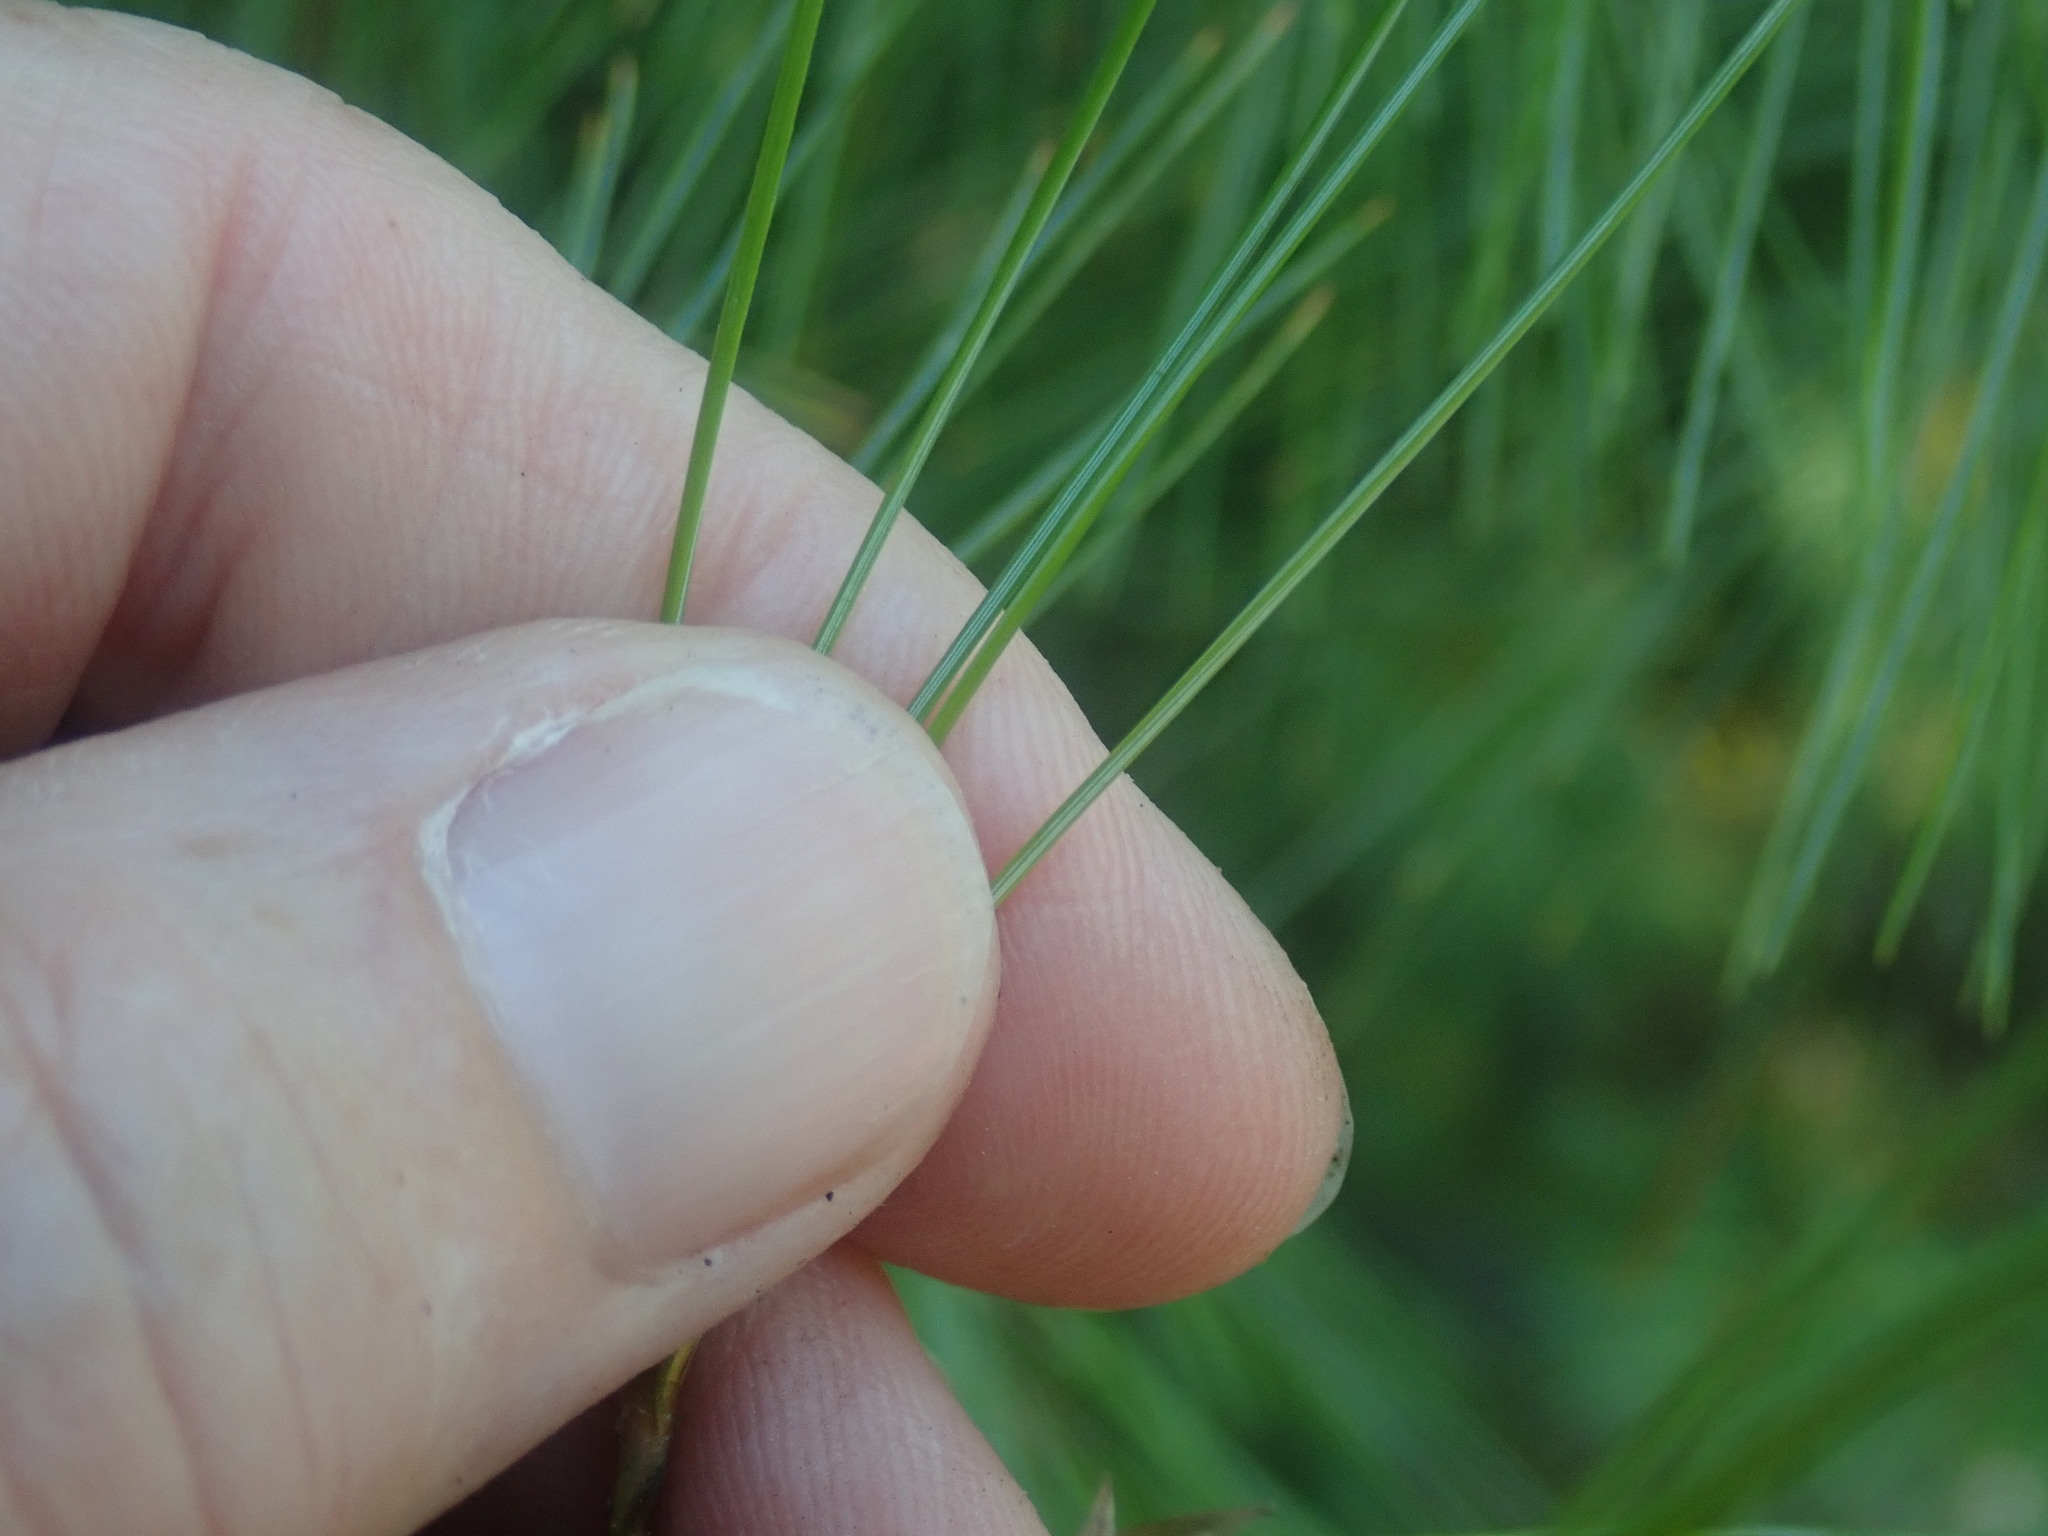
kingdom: Plantae
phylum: Tracheophyta
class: Pinopsida
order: Pinales
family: Pinaceae
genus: Pinus
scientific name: Pinus strobus
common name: Weymouth pine
